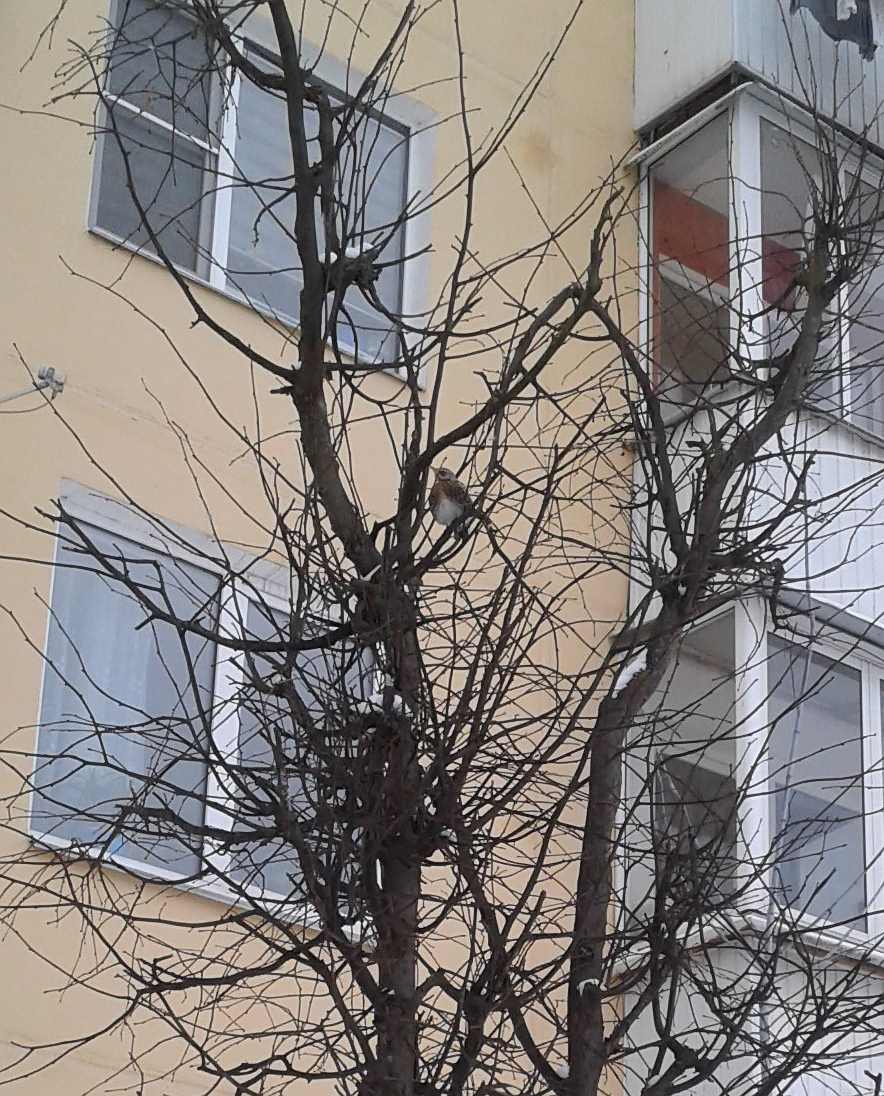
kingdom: Animalia
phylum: Chordata
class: Aves
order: Passeriformes
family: Turdidae
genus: Turdus
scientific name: Turdus pilaris
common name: Fieldfare
